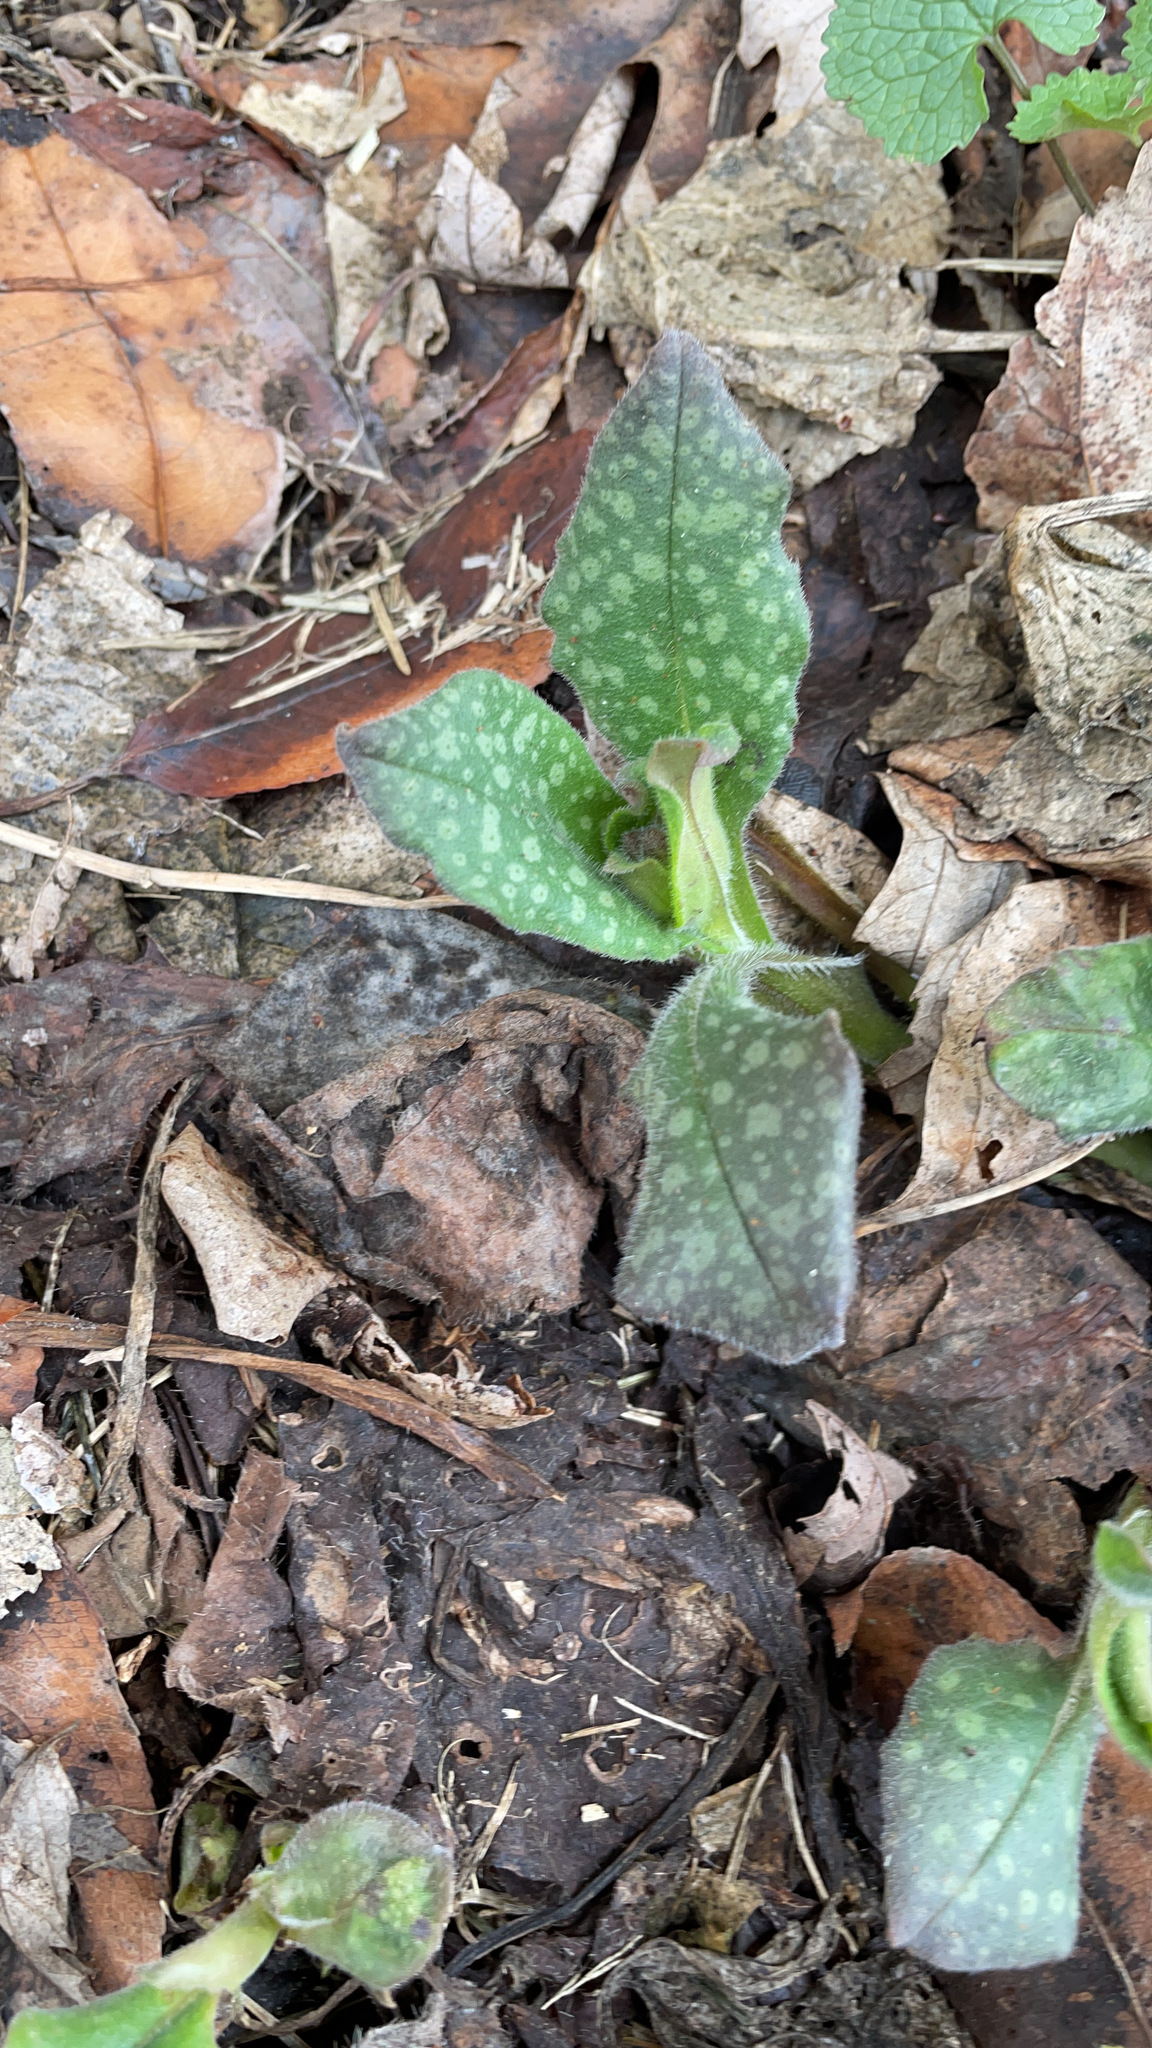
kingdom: Plantae
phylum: Tracheophyta
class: Magnoliopsida
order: Boraginales
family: Boraginaceae
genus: Pulmonaria
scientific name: Pulmonaria officinalis
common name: Lungwort
